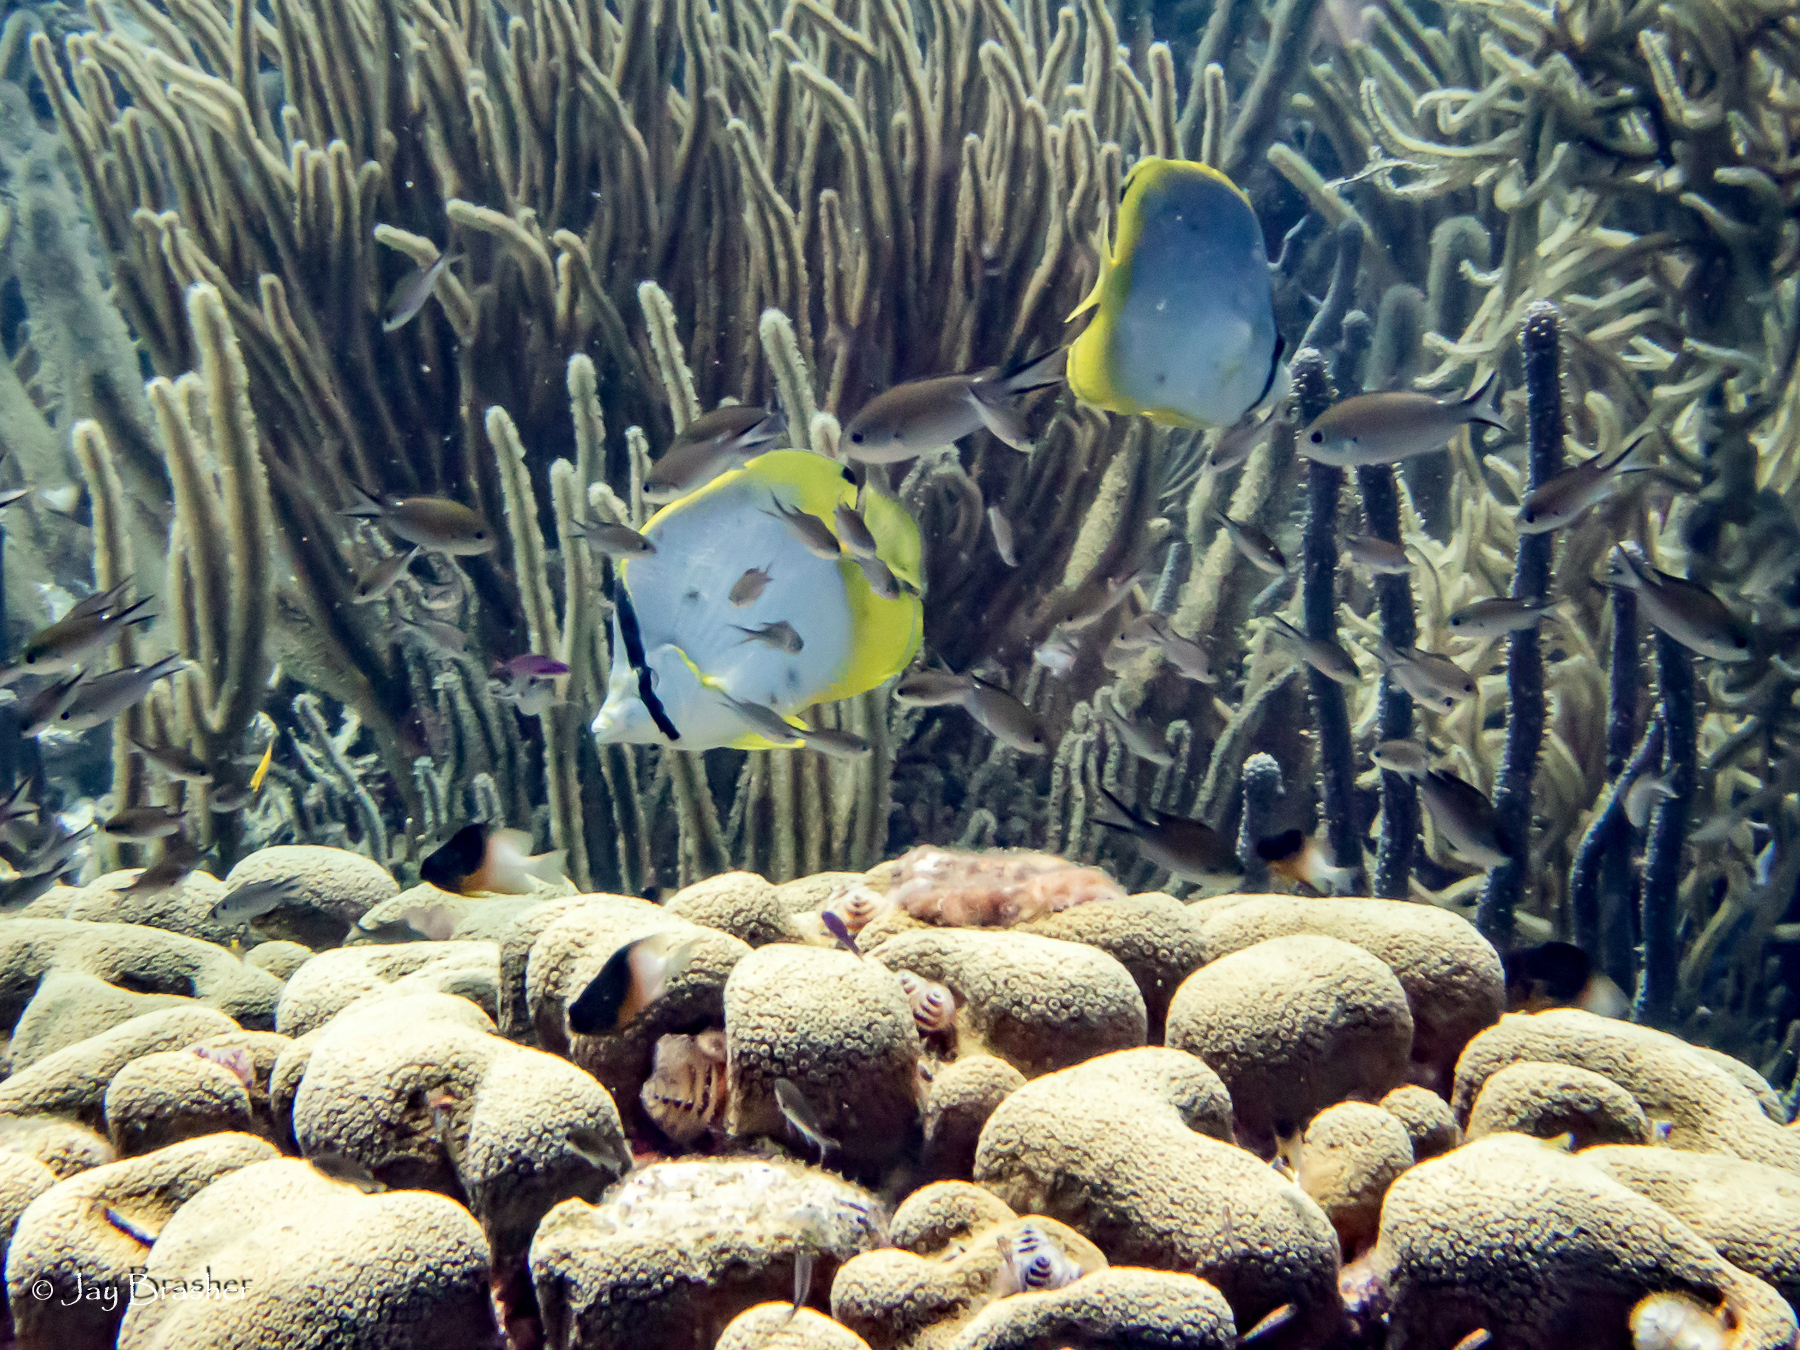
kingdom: Animalia
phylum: Chordata
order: Perciformes
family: Chaetodontidae
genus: Chaetodon
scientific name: Chaetodon ocellatus
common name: Spotfin butterflyfish
